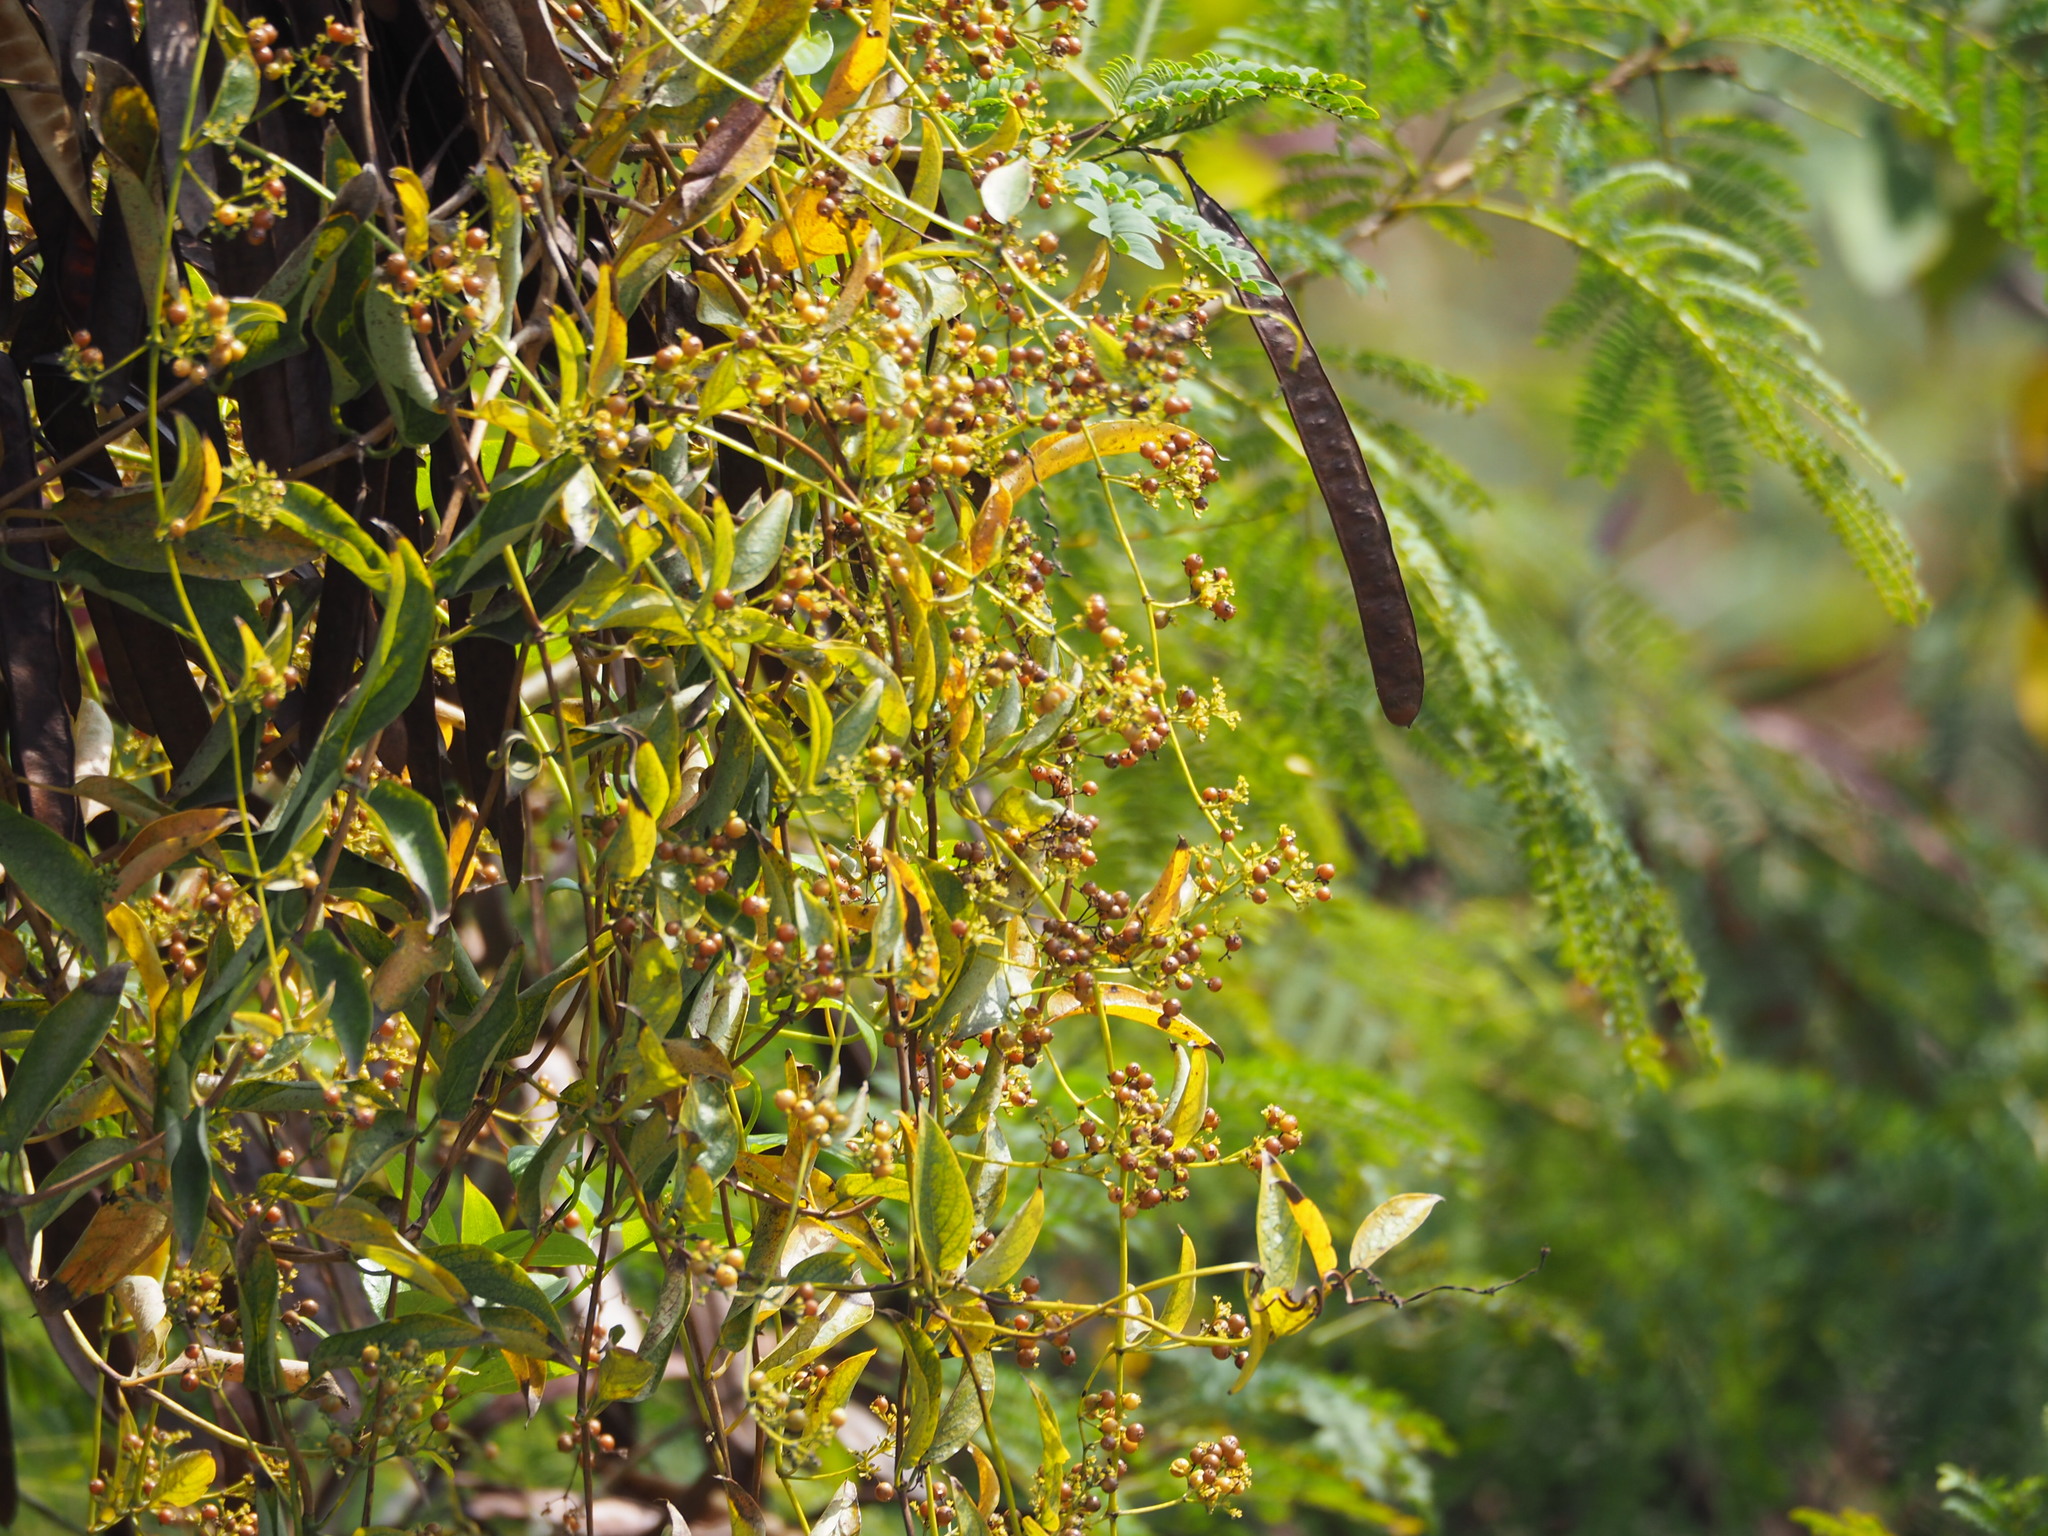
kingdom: Plantae
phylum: Tracheophyta
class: Magnoliopsida
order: Gentianales
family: Rubiaceae
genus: Paederia
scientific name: Paederia foetida
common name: Stinkvine
